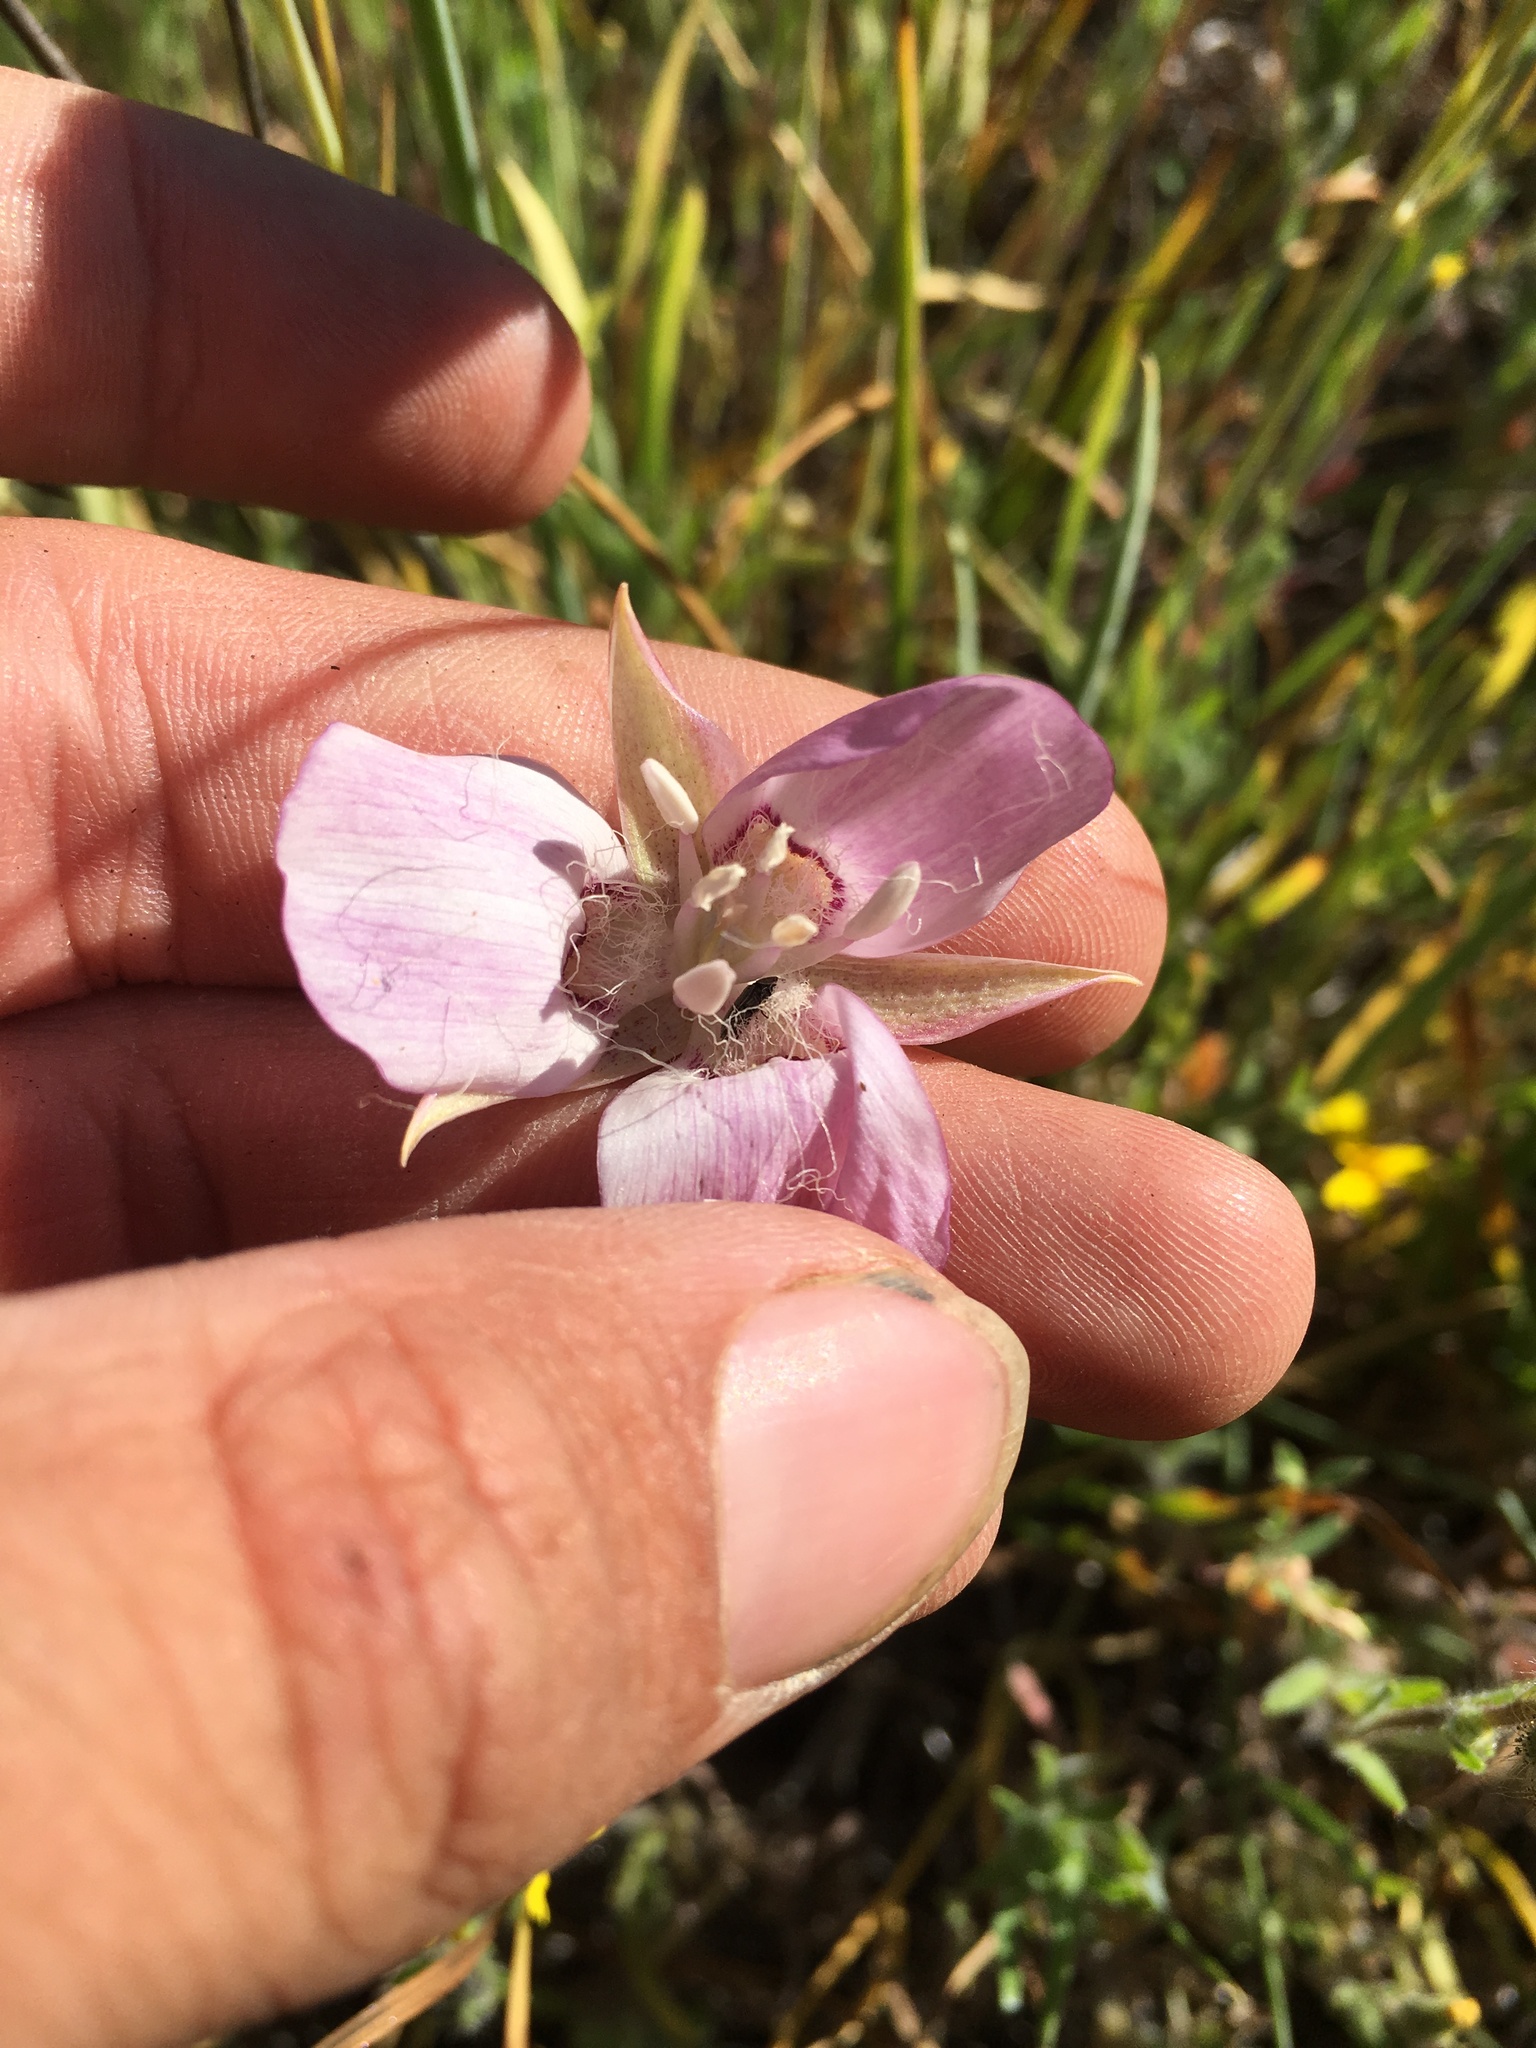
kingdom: Plantae
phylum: Tracheophyta
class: Liliopsida
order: Liliales
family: Liliaceae
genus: Calochortus
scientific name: Calochortus longibarbatus
